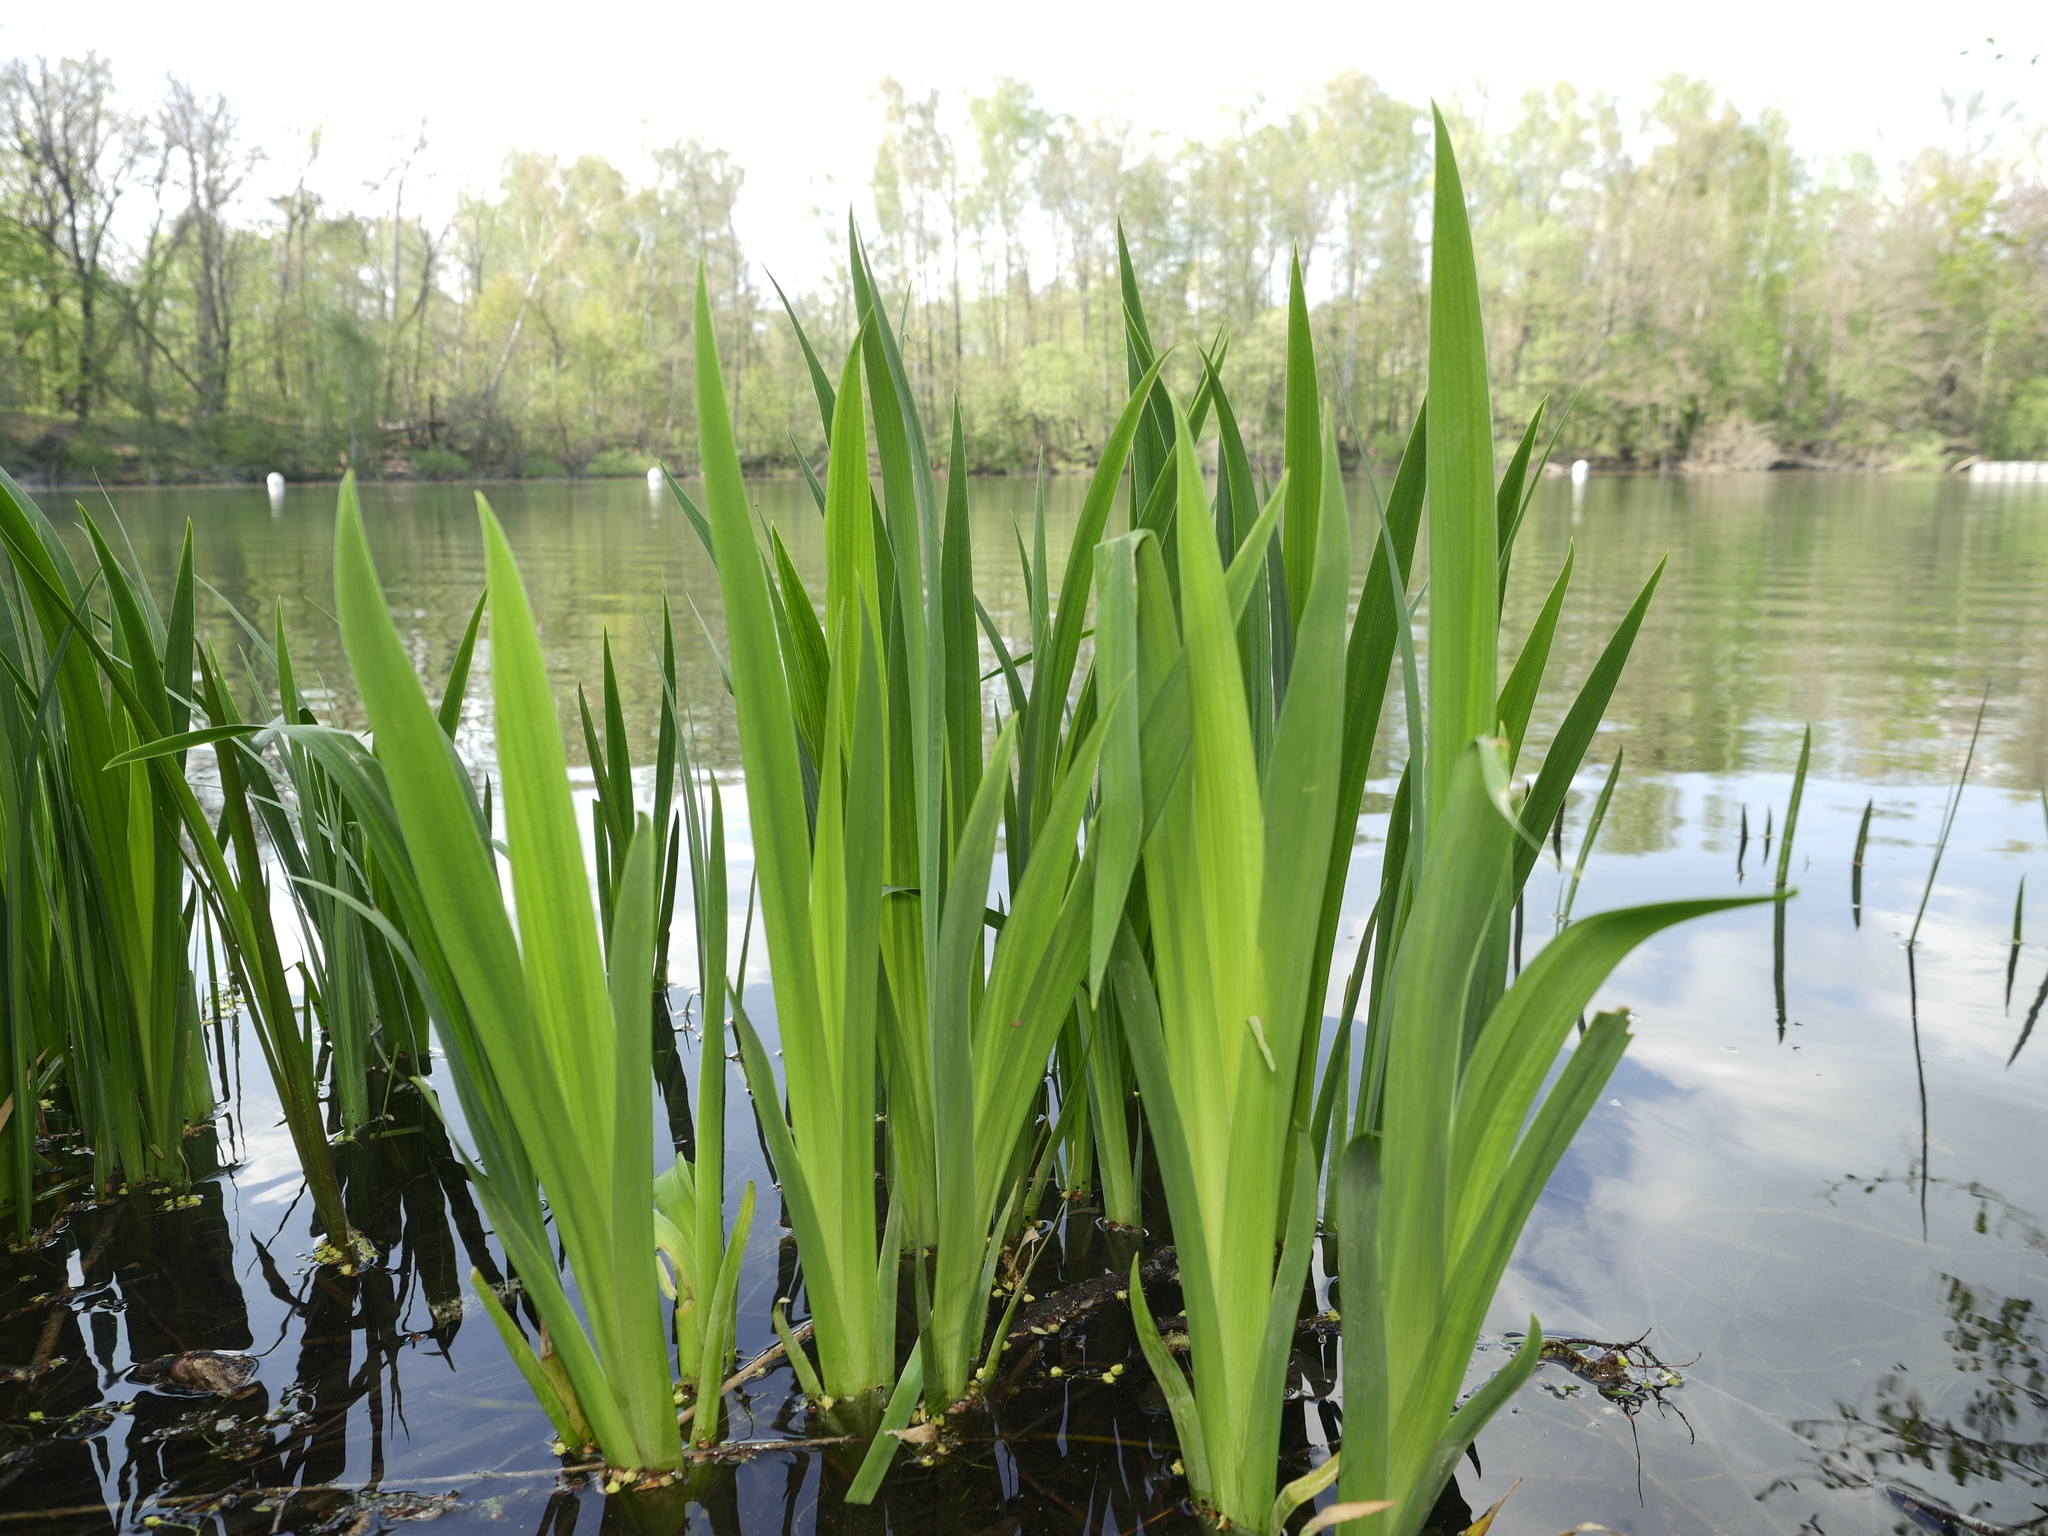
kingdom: Plantae
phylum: Tracheophyta
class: Liliopsida
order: Asparagales
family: Iridaceae
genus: Iris
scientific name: Iris pseudacorus
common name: Yellow flag
